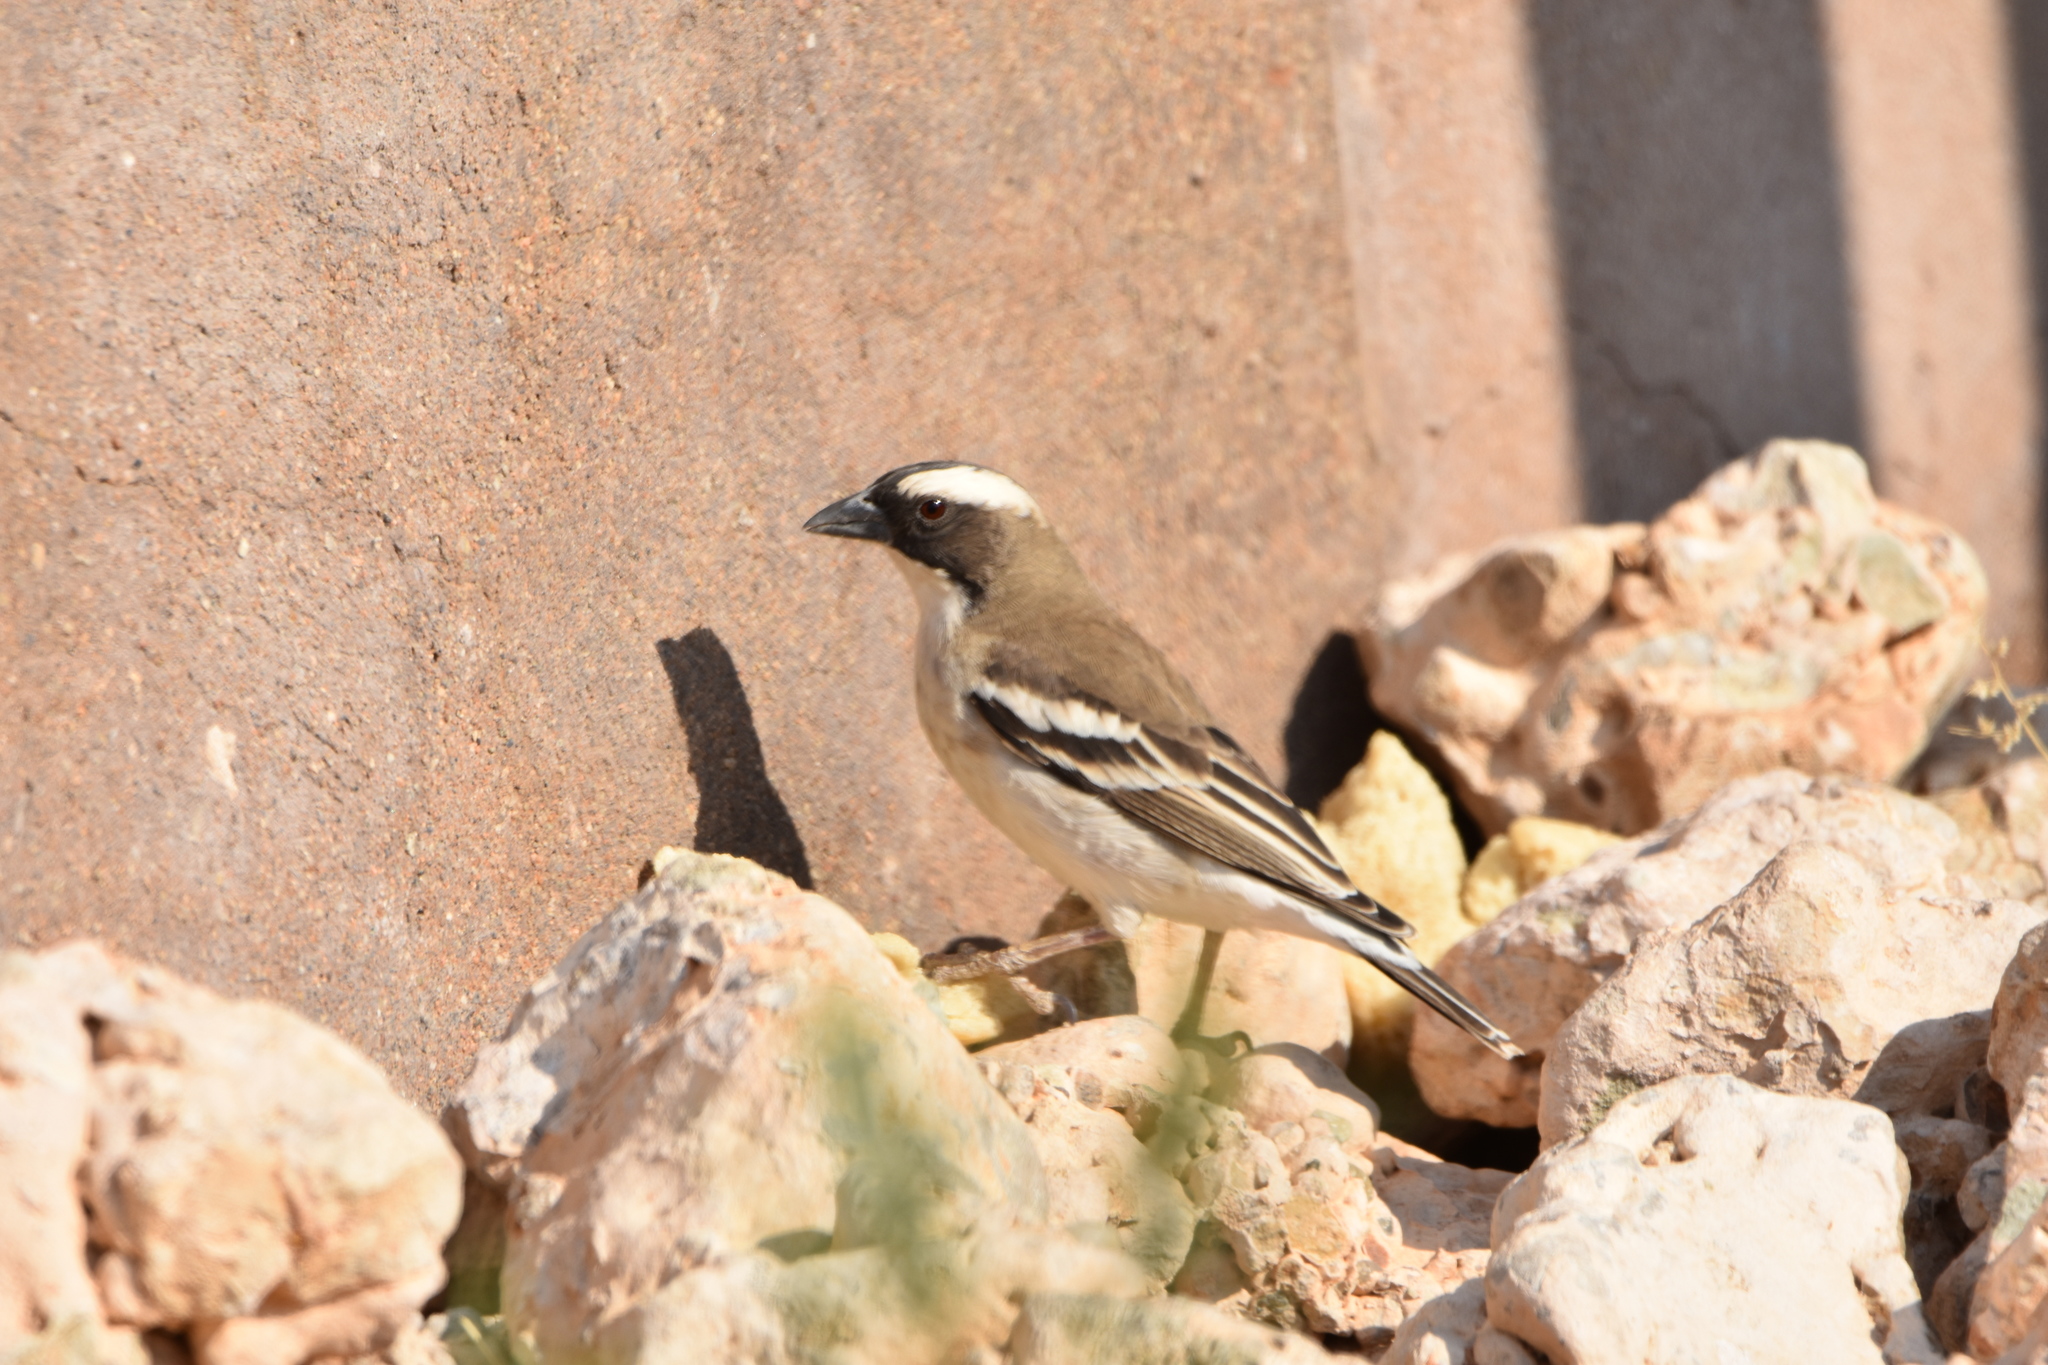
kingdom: Animalia
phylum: Chordata
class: Aves
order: Passeriformes
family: Passeridae
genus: Plocepasser
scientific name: Plocepasser mahali
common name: White-browed sparrow-weaver
